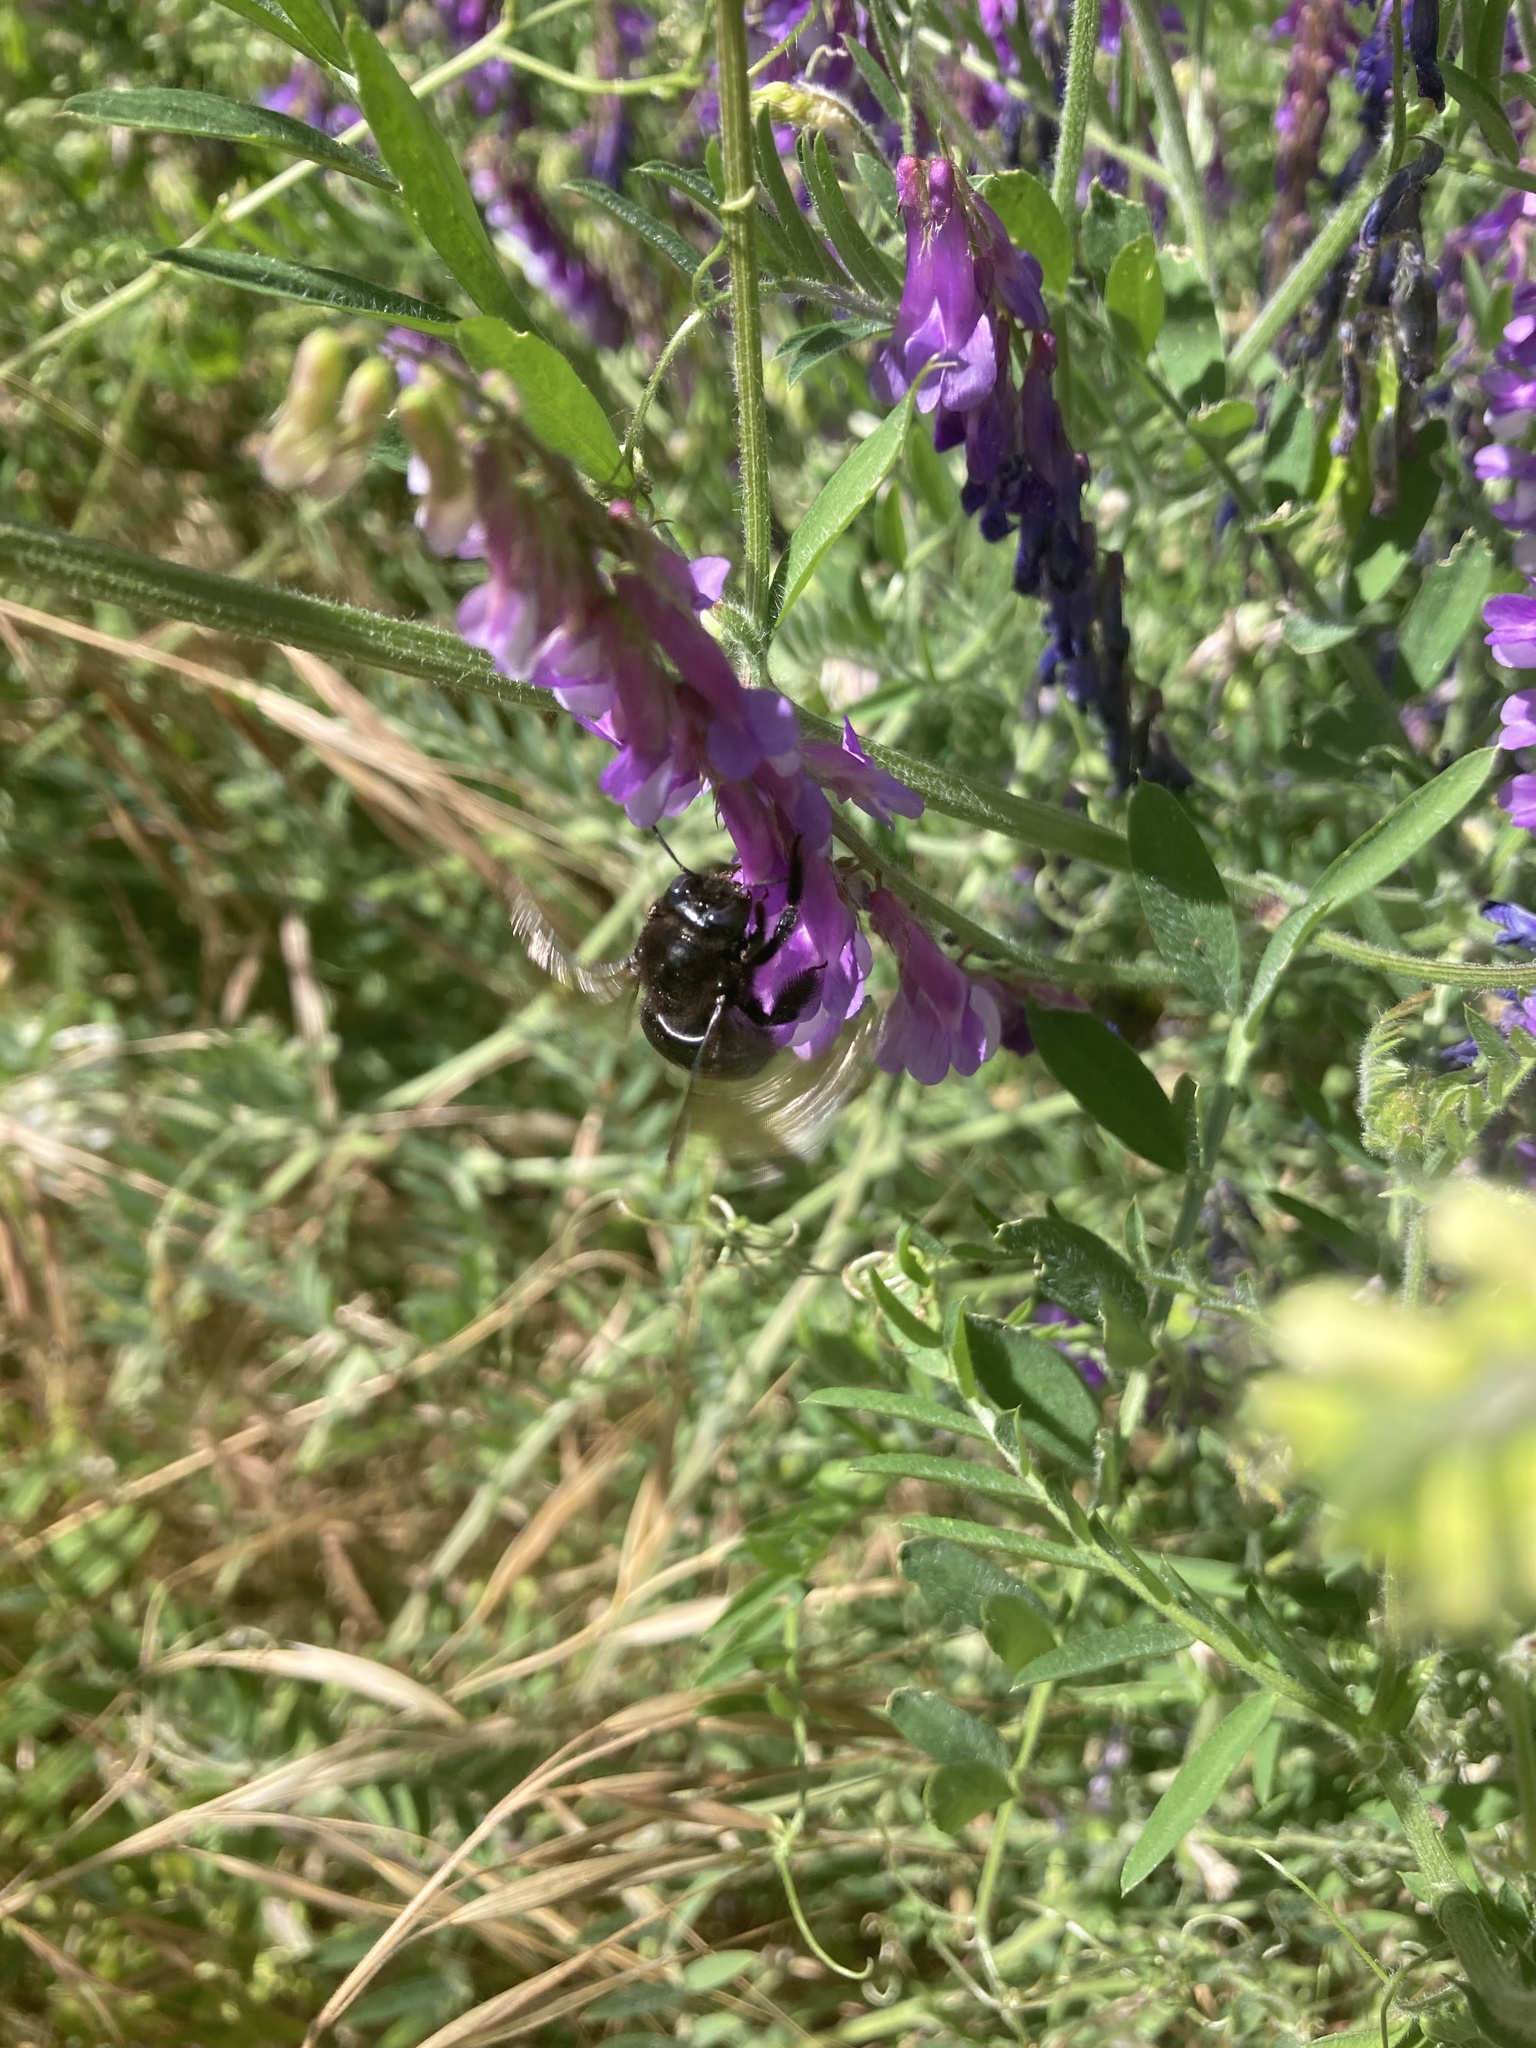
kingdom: Animalia
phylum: Arthropoda
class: Insecta
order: Hymenoptera
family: Apidae
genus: Xylocopa
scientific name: Xylocopa tabaniformis
